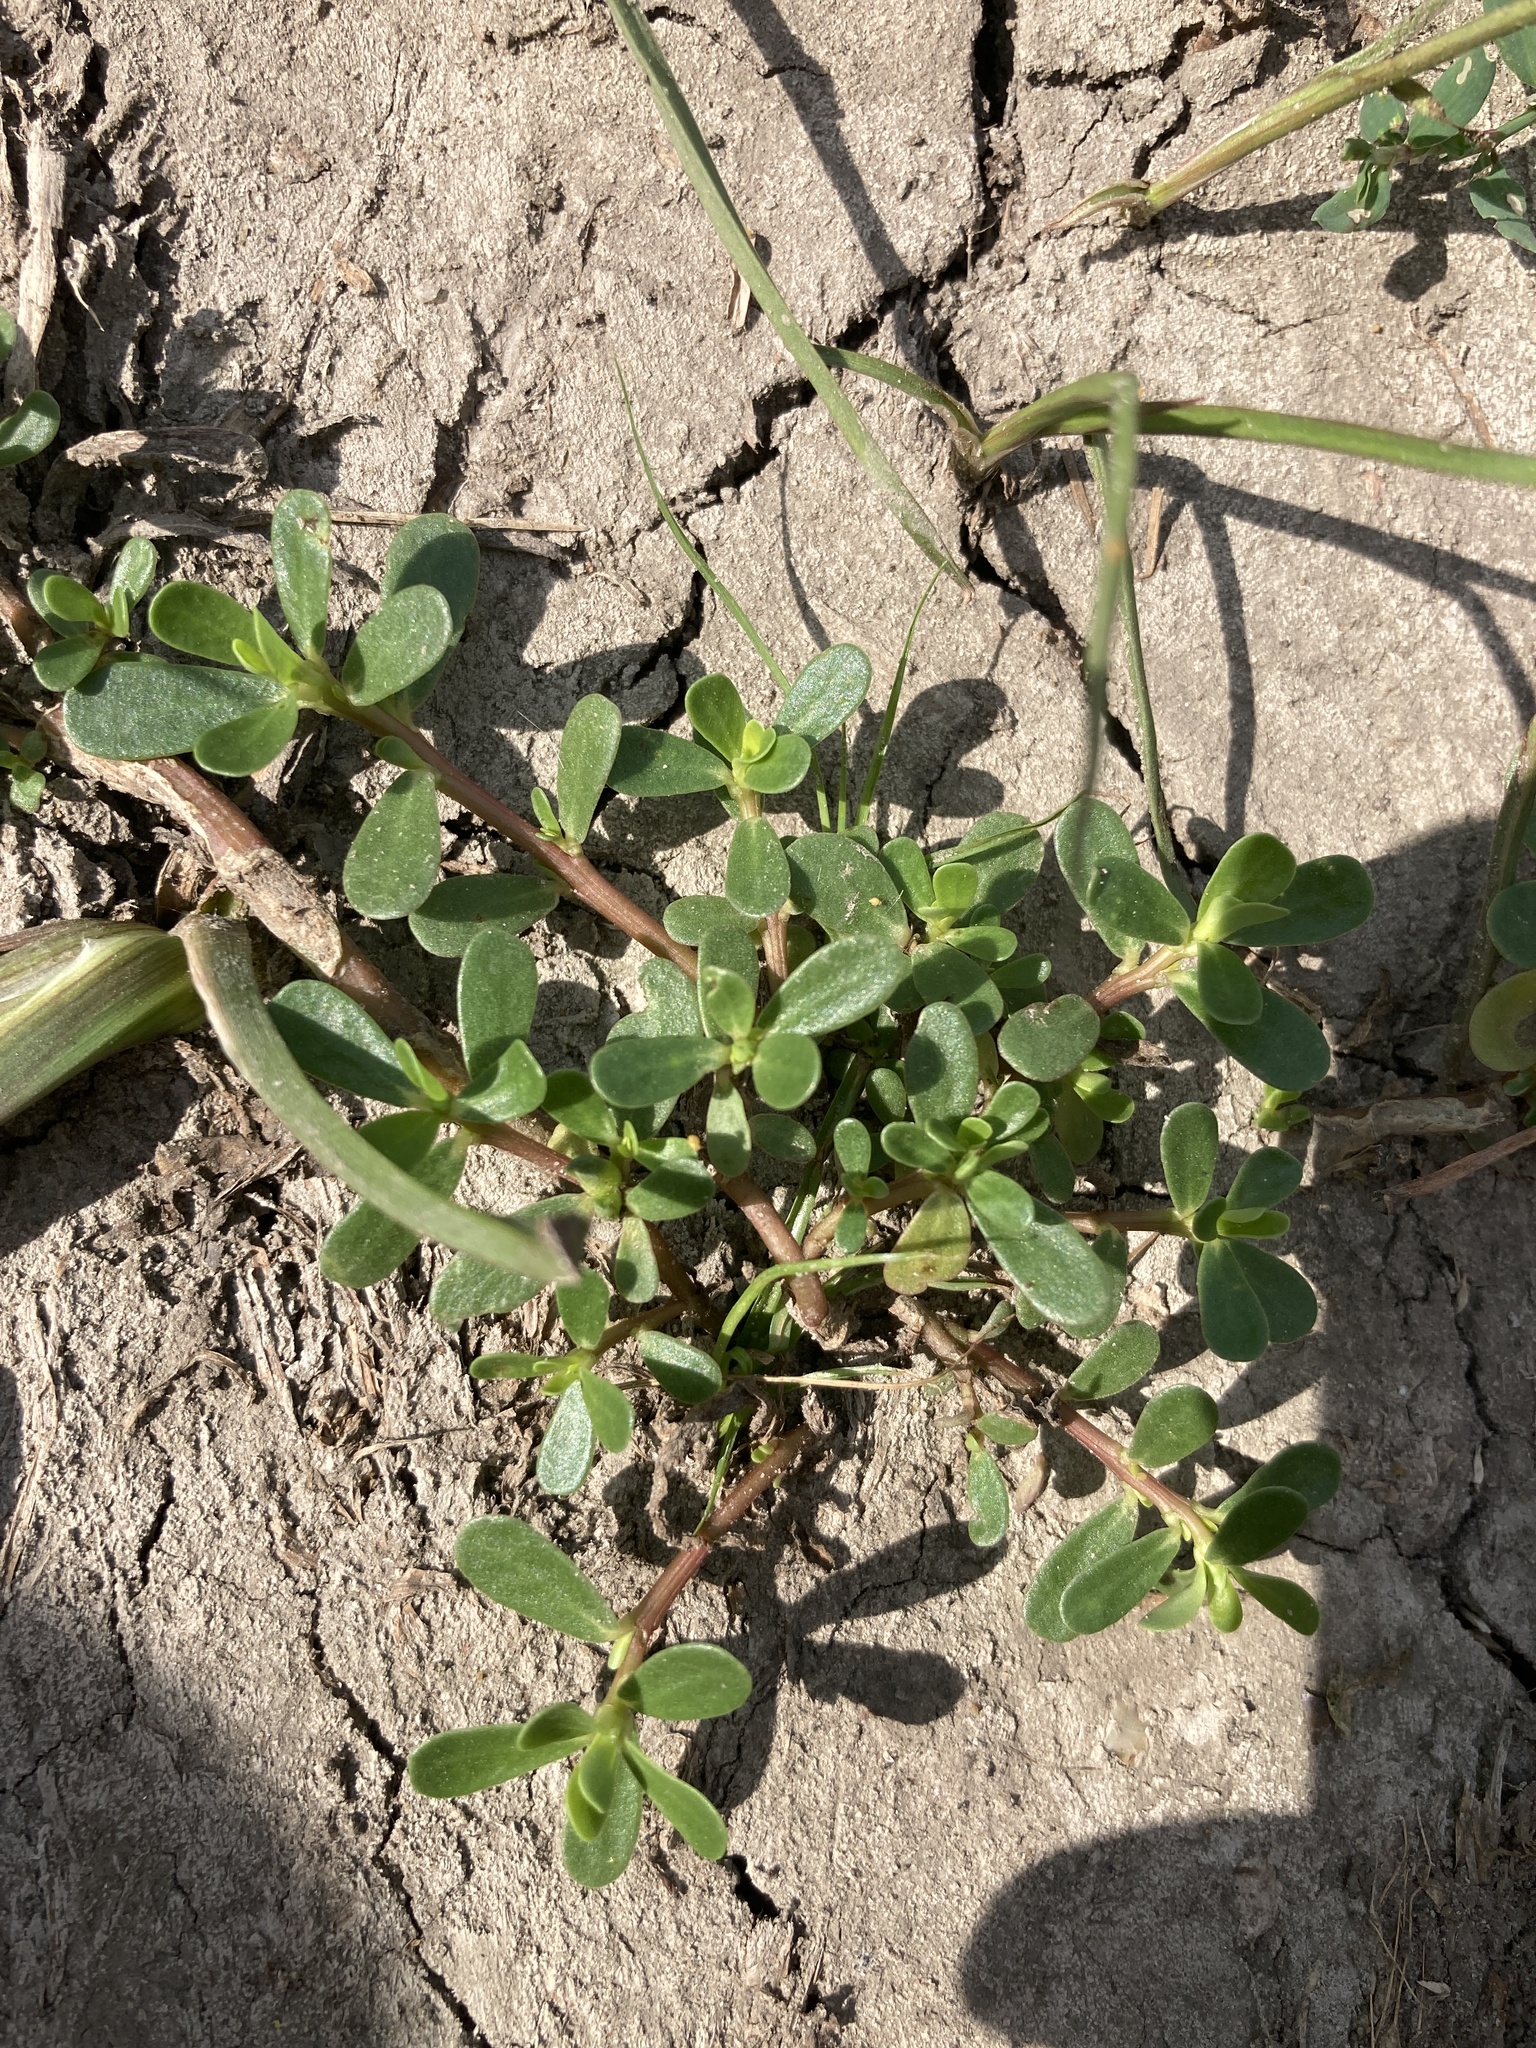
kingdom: Plantae
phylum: Tracheophyta
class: Magnoliopsida
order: Caryophyllales
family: Portulacaceae
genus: Portulaca
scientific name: Portulaca oleracea
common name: Common purslane
